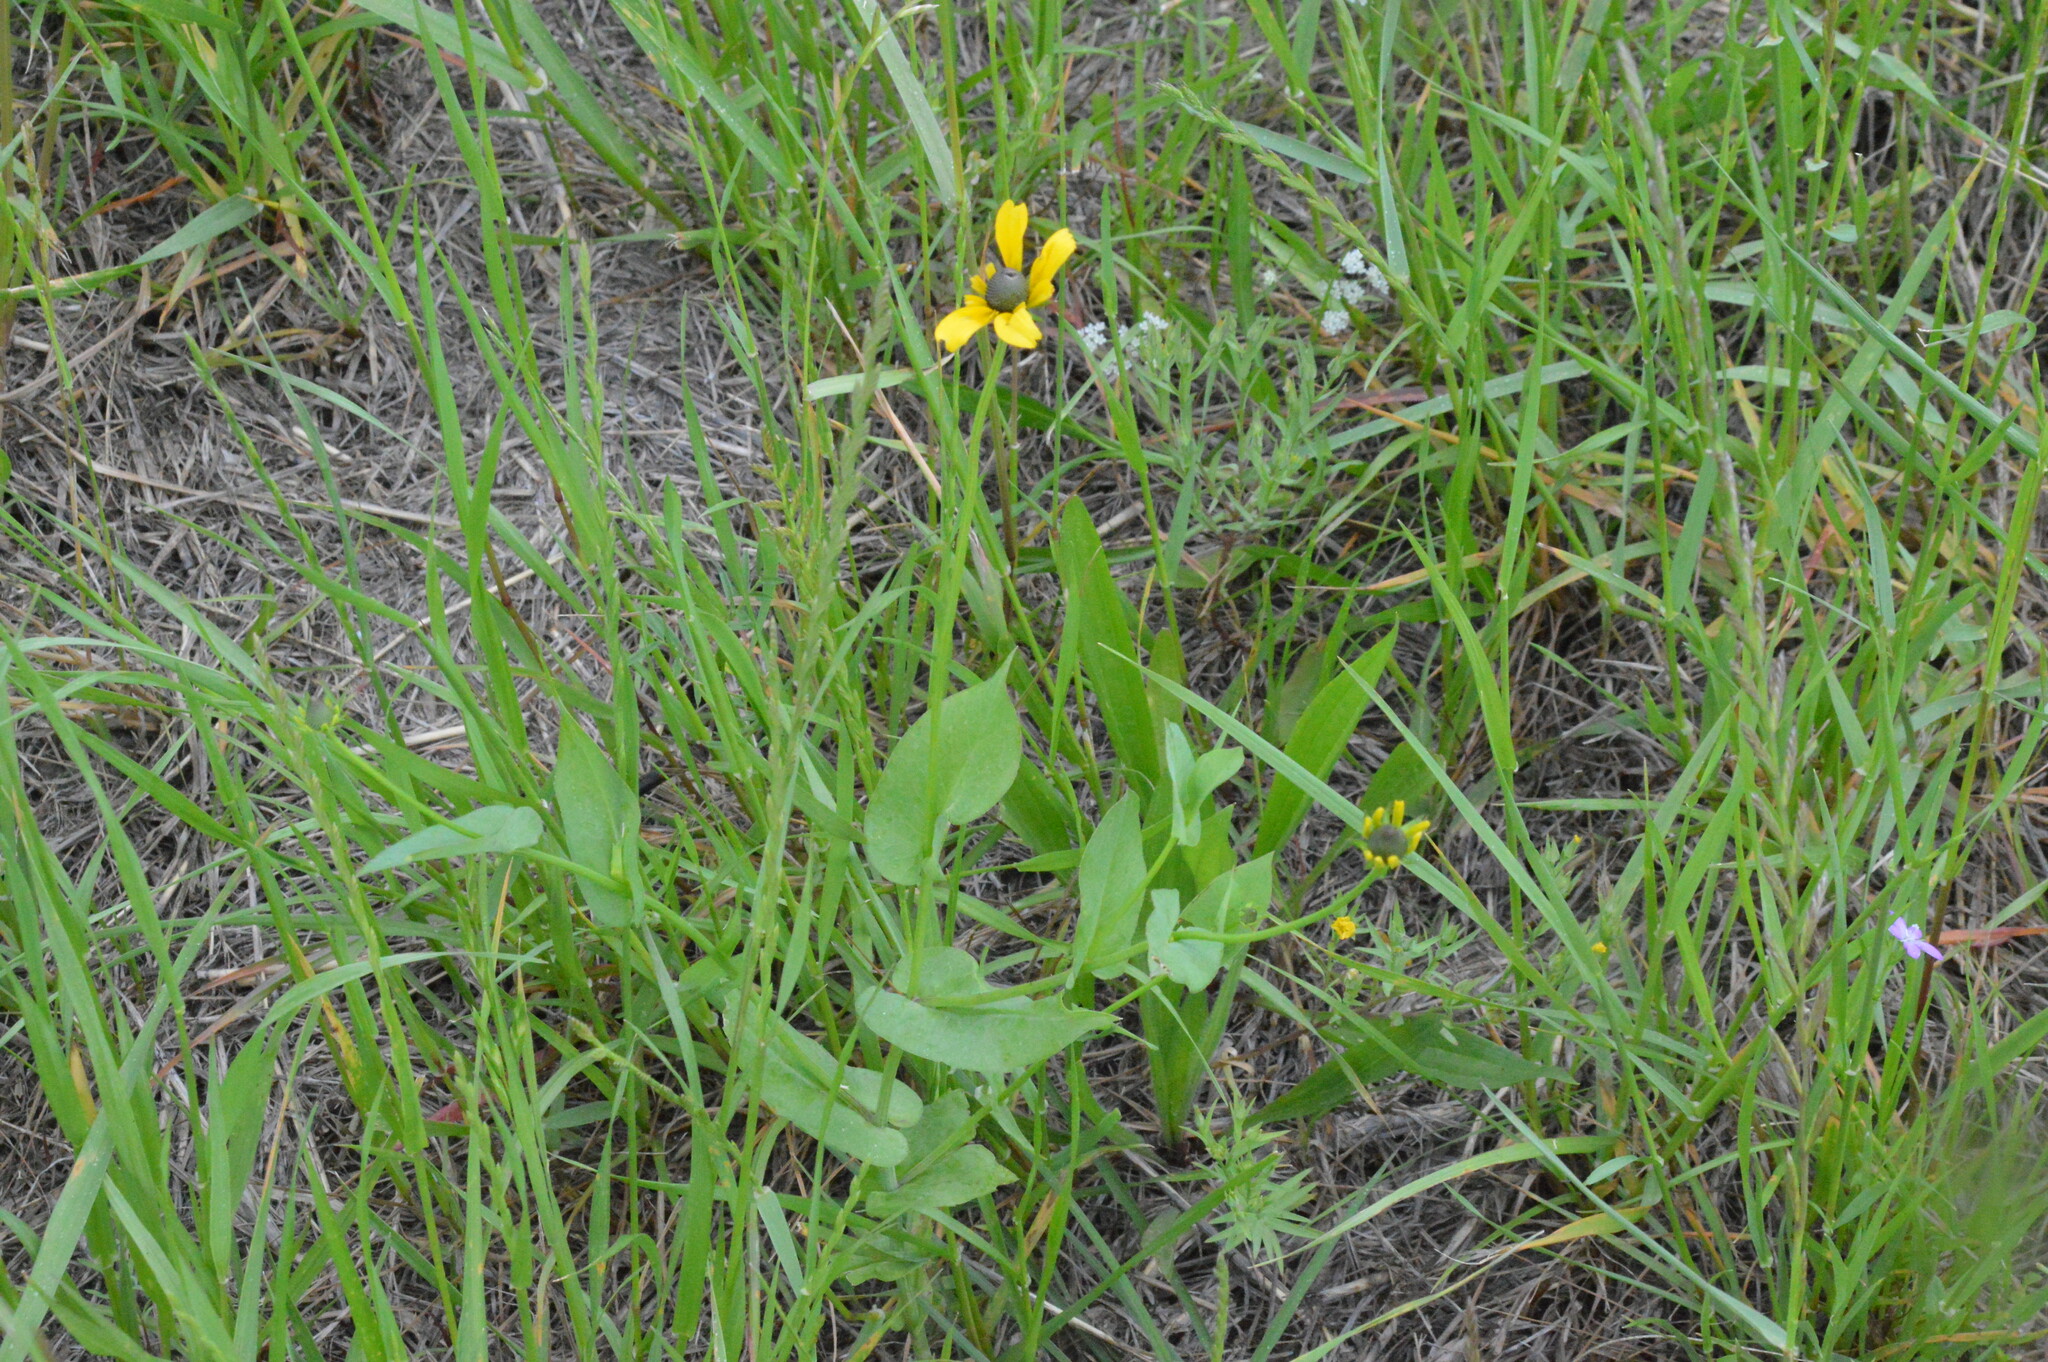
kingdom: Plantae
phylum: Tracheophyta
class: Magnoliopsida
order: Asterales
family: Asteraceae
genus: Rudbeckia
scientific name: Rudbeckia amplexicaulis
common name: Clasping-leaf coneflower
